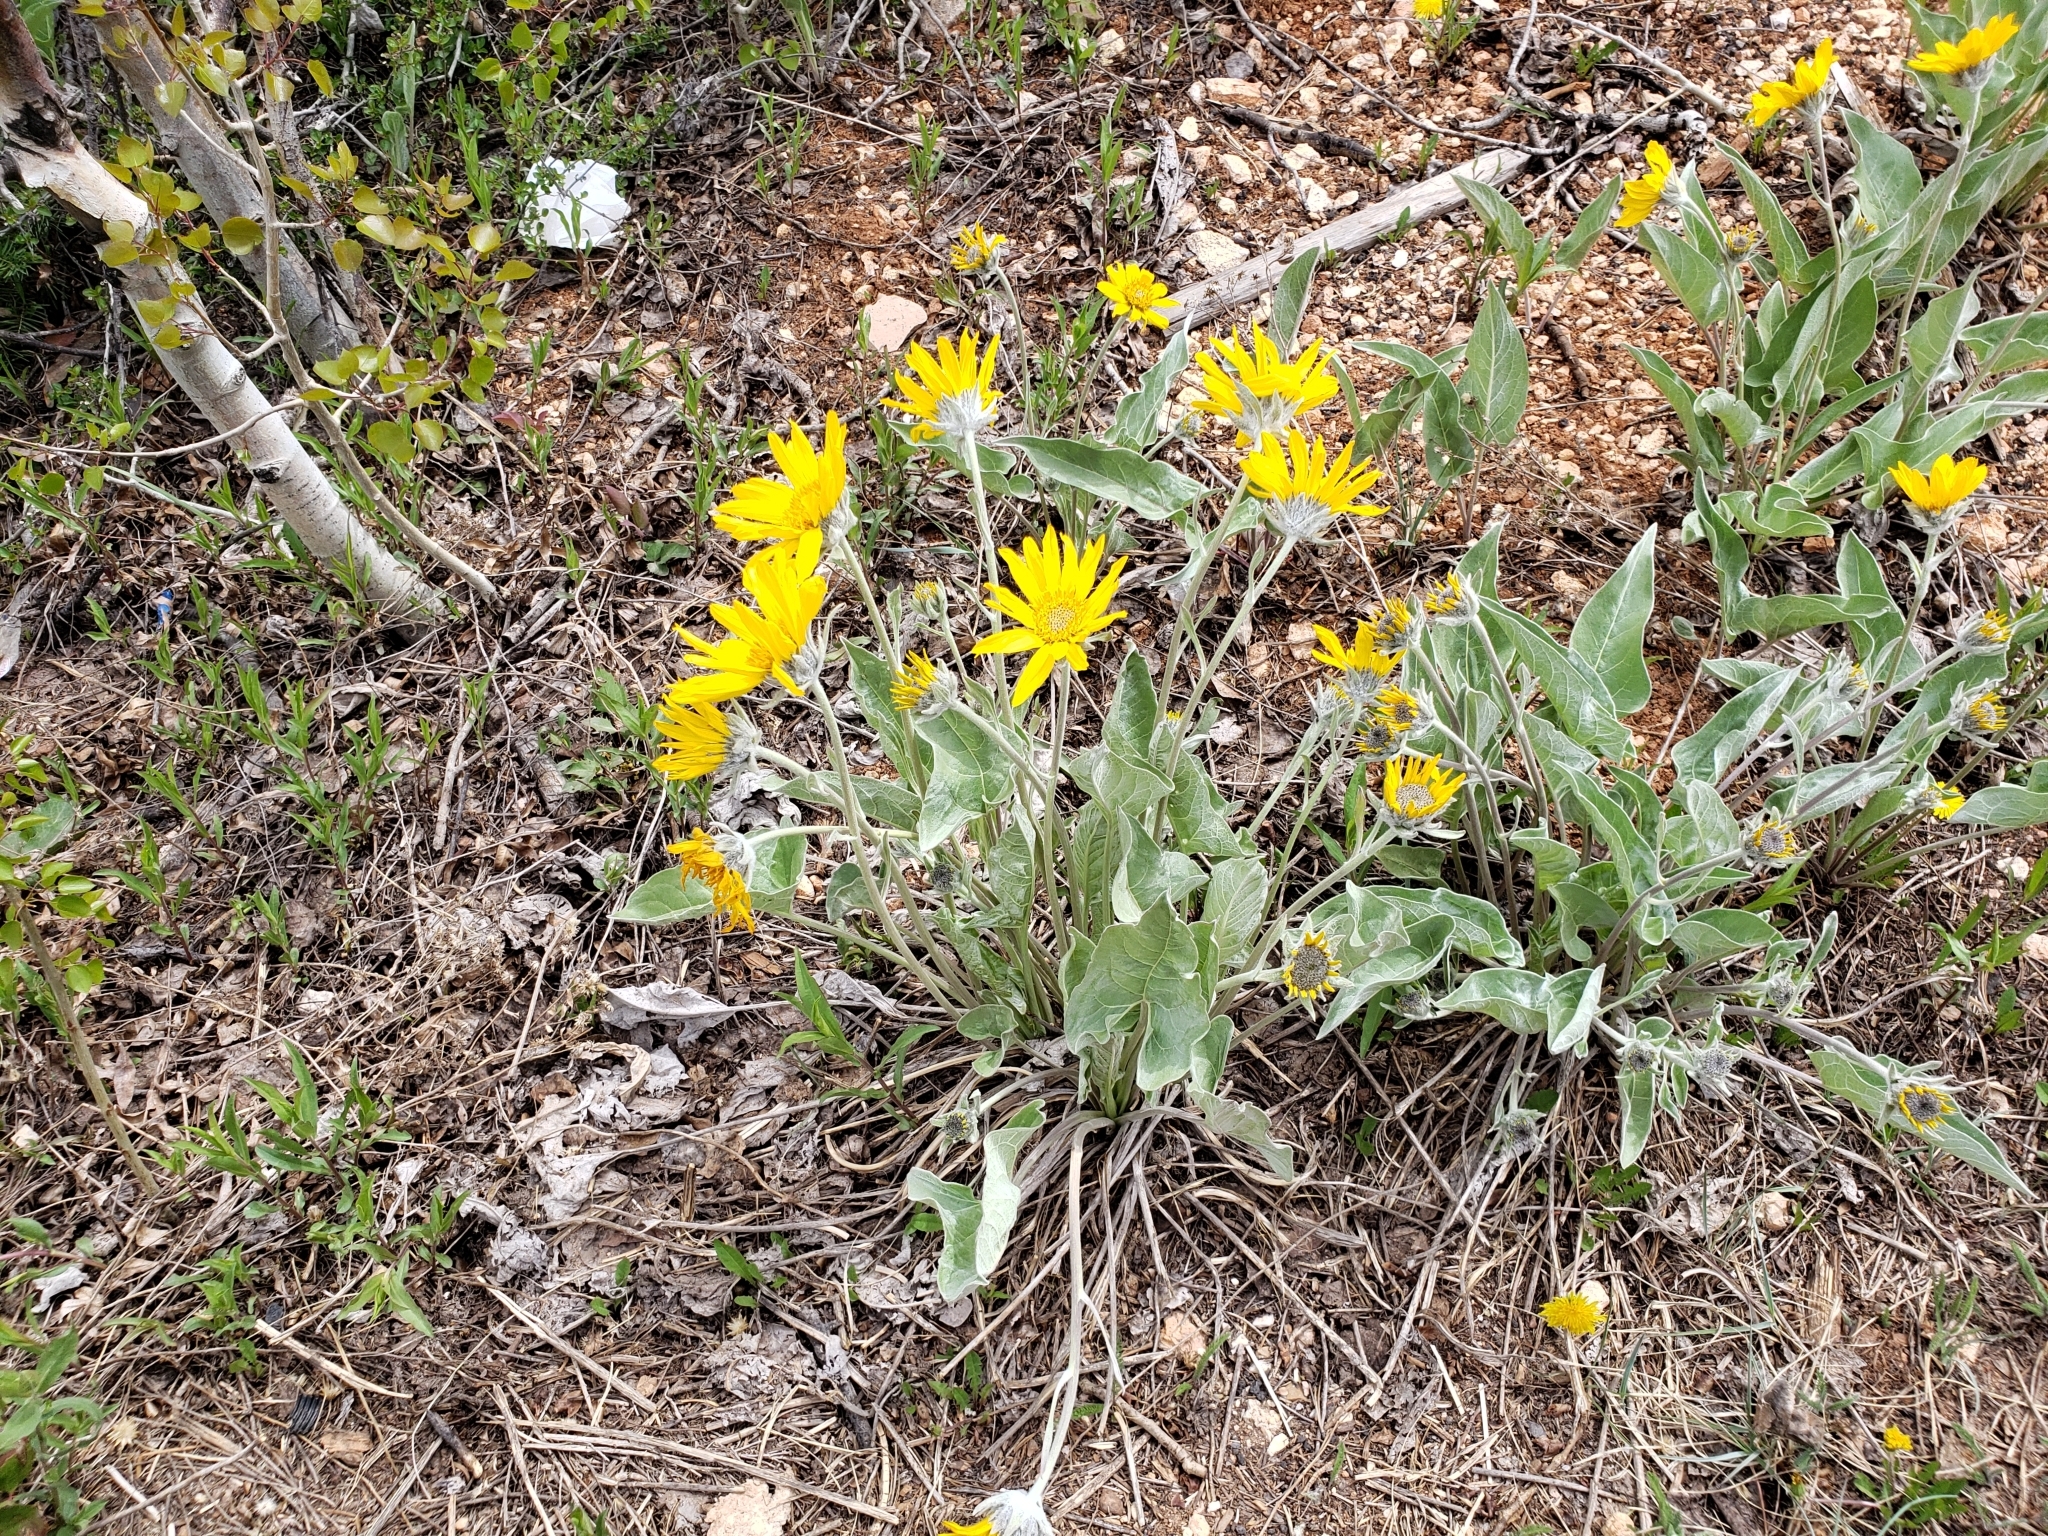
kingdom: Plantae
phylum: Tracheophyta
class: Magnoliopsida
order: Asterales
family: Asteraceae
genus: Wyethia
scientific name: Wyethia sagittata
